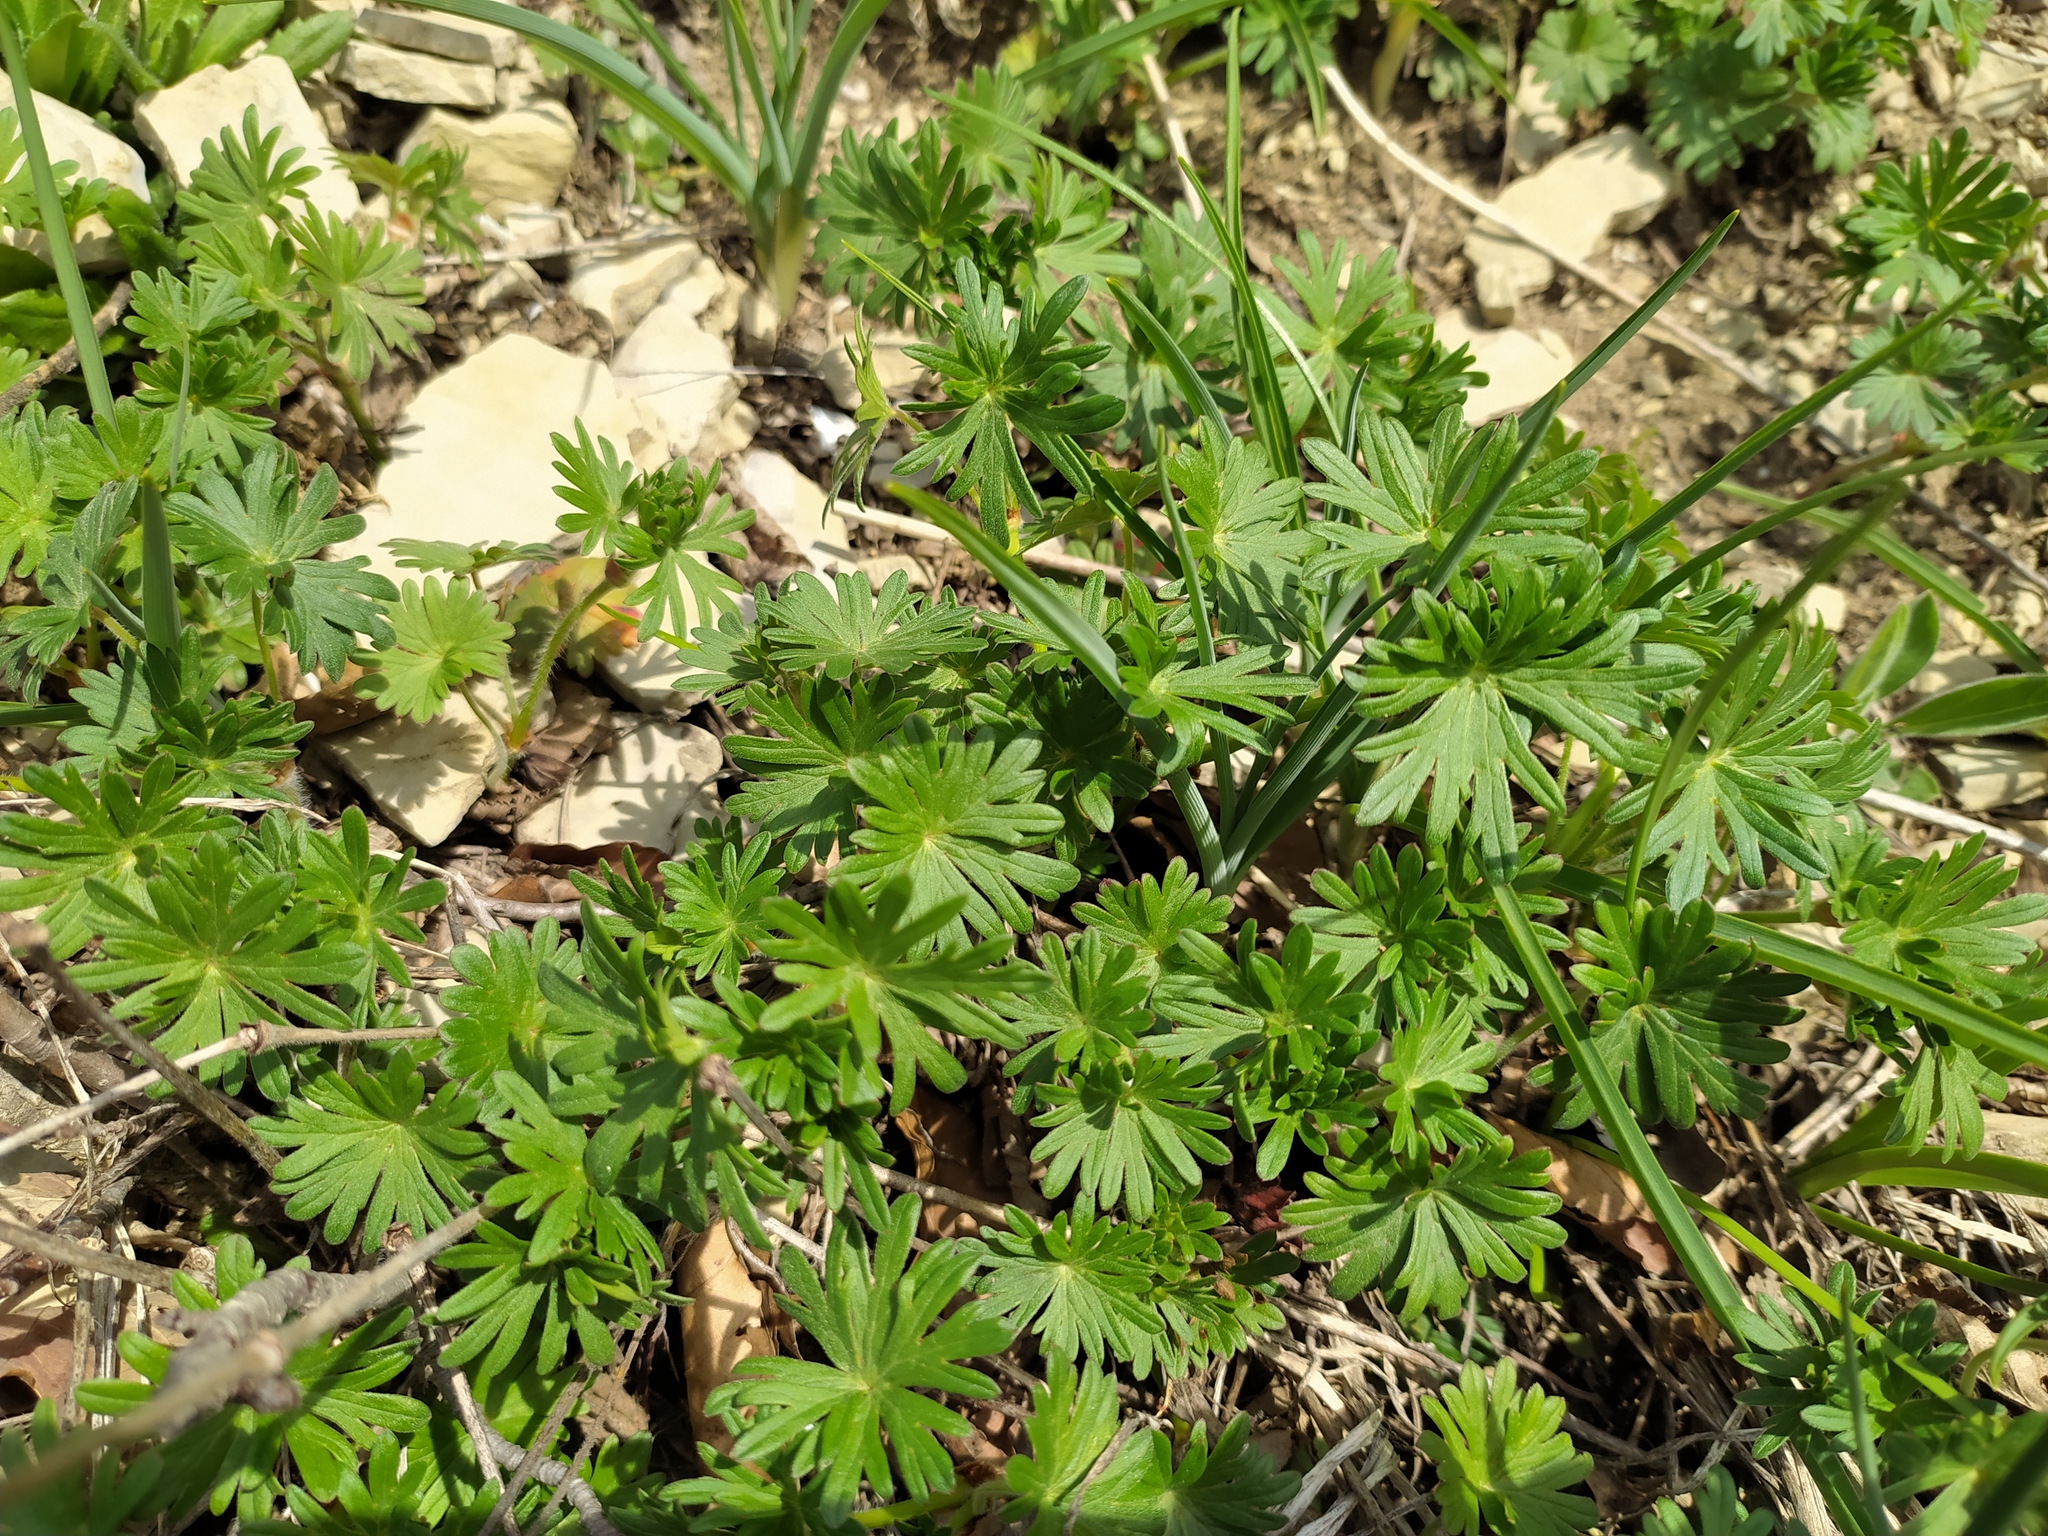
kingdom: Plantae
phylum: Tracheophyta
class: Magnoliopsida
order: Geraniales
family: Geraniaceae
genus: Geranium
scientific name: Geranium sanguineum
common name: Bloody crane's-bill
